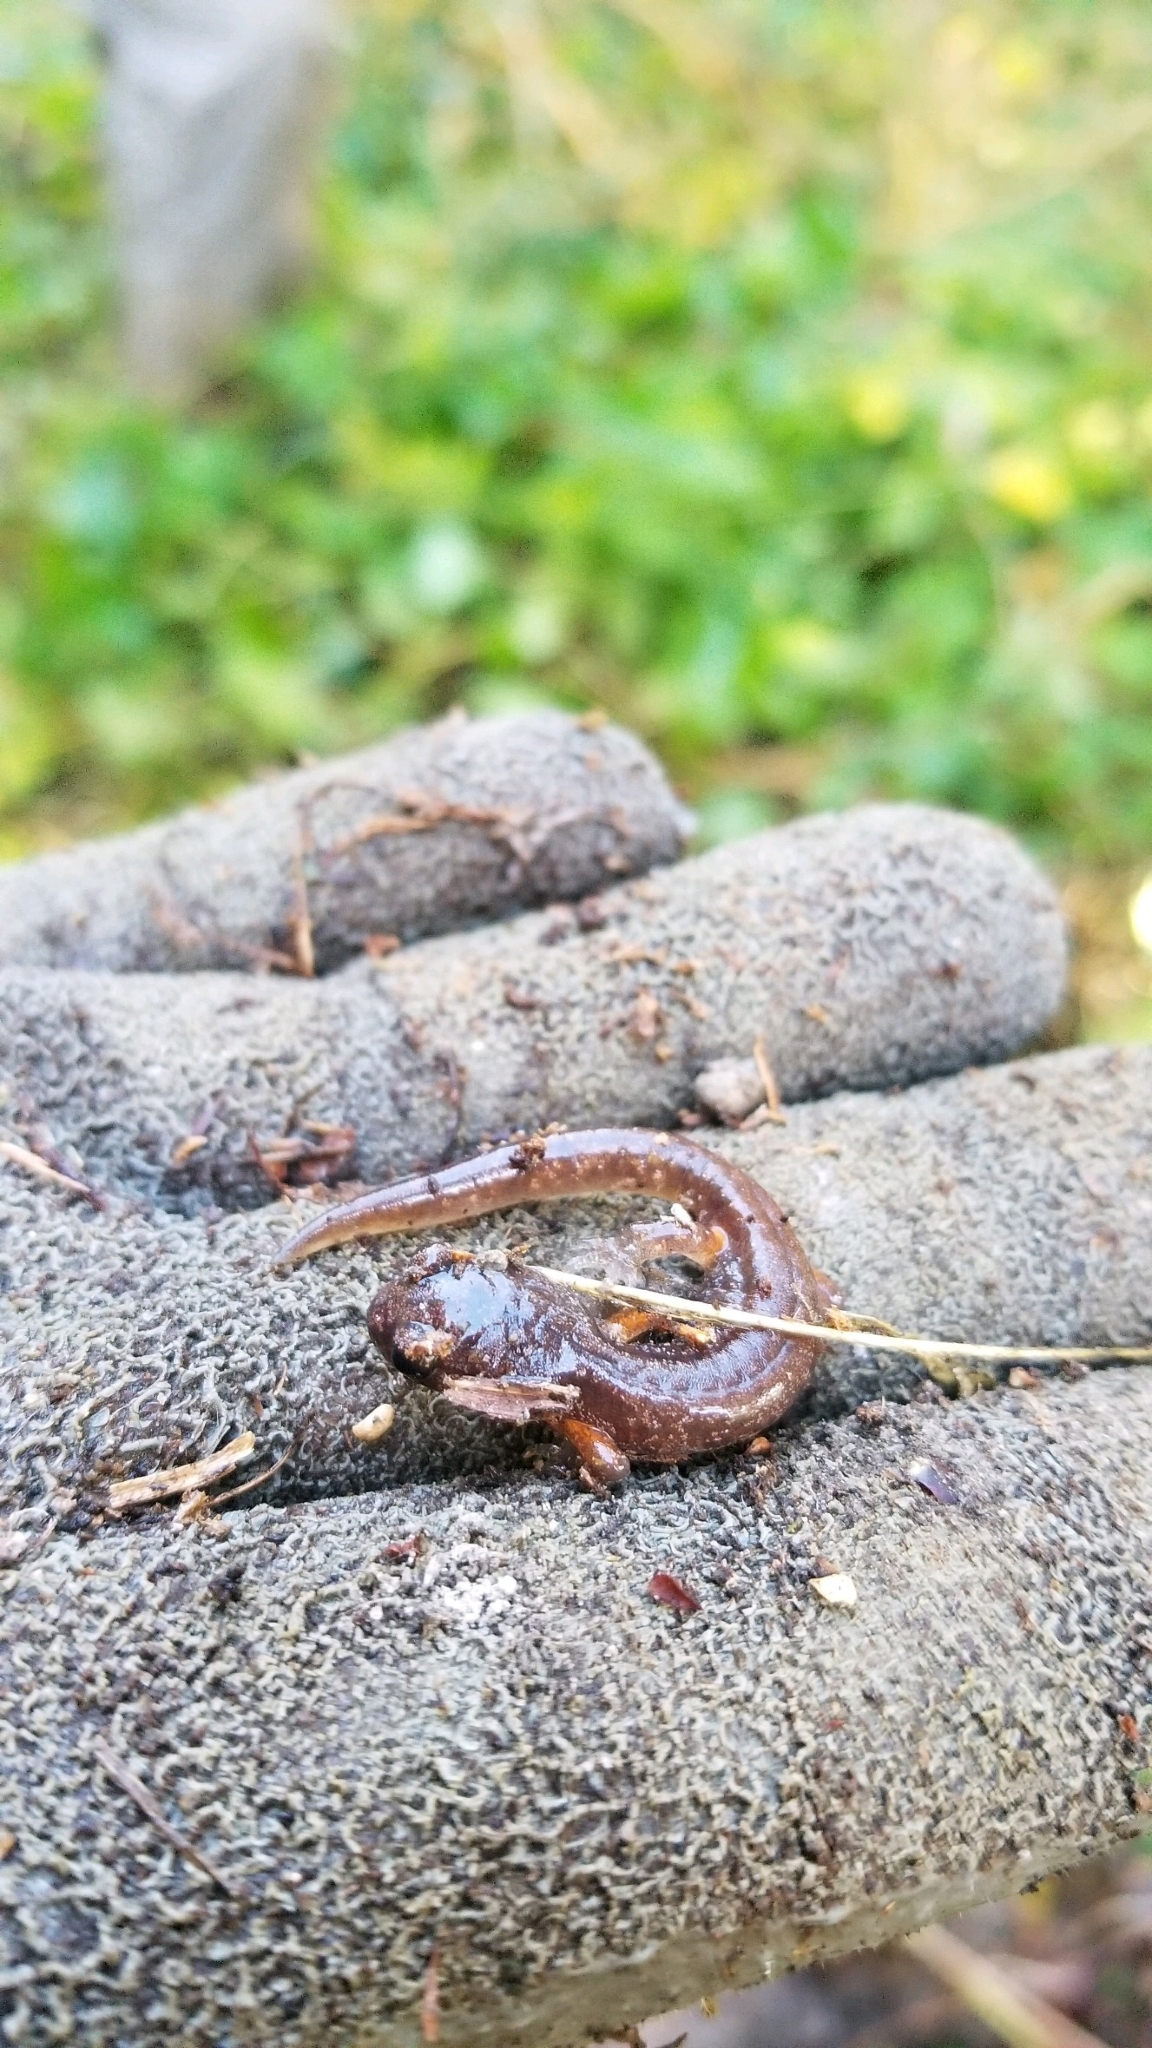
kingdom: Animalia
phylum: Chordata
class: Amphibia
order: Caudata
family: Plethodontidae
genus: Ensatina
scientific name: Ensatina eschscholtzii
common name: Ensatina
